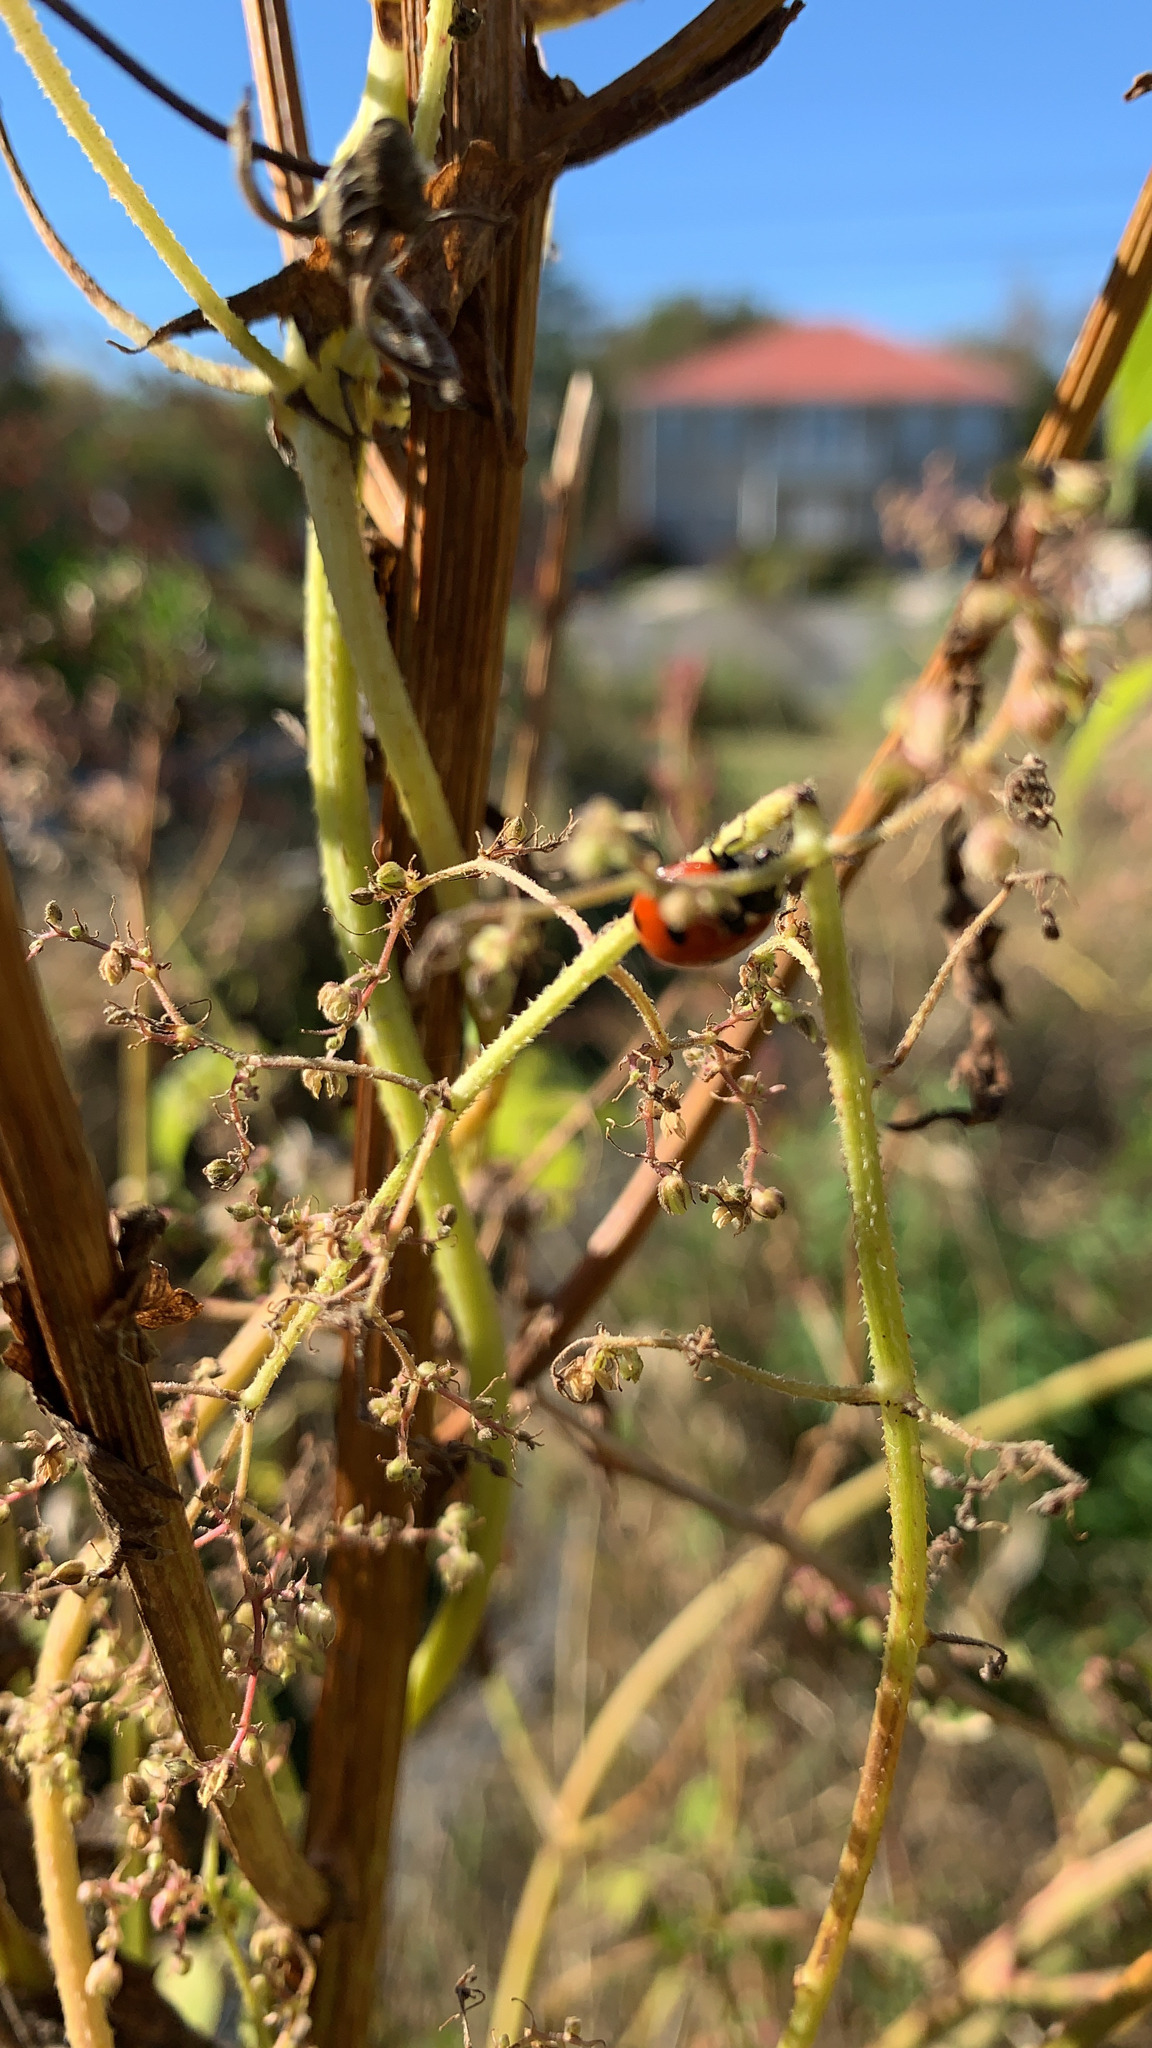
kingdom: Animalia
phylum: Arthropoda
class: Insecta
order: Coleoptera
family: Coccinellidae
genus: Coccinella
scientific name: Coccinella septempunctata
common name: Sevenspotted lady beetle
